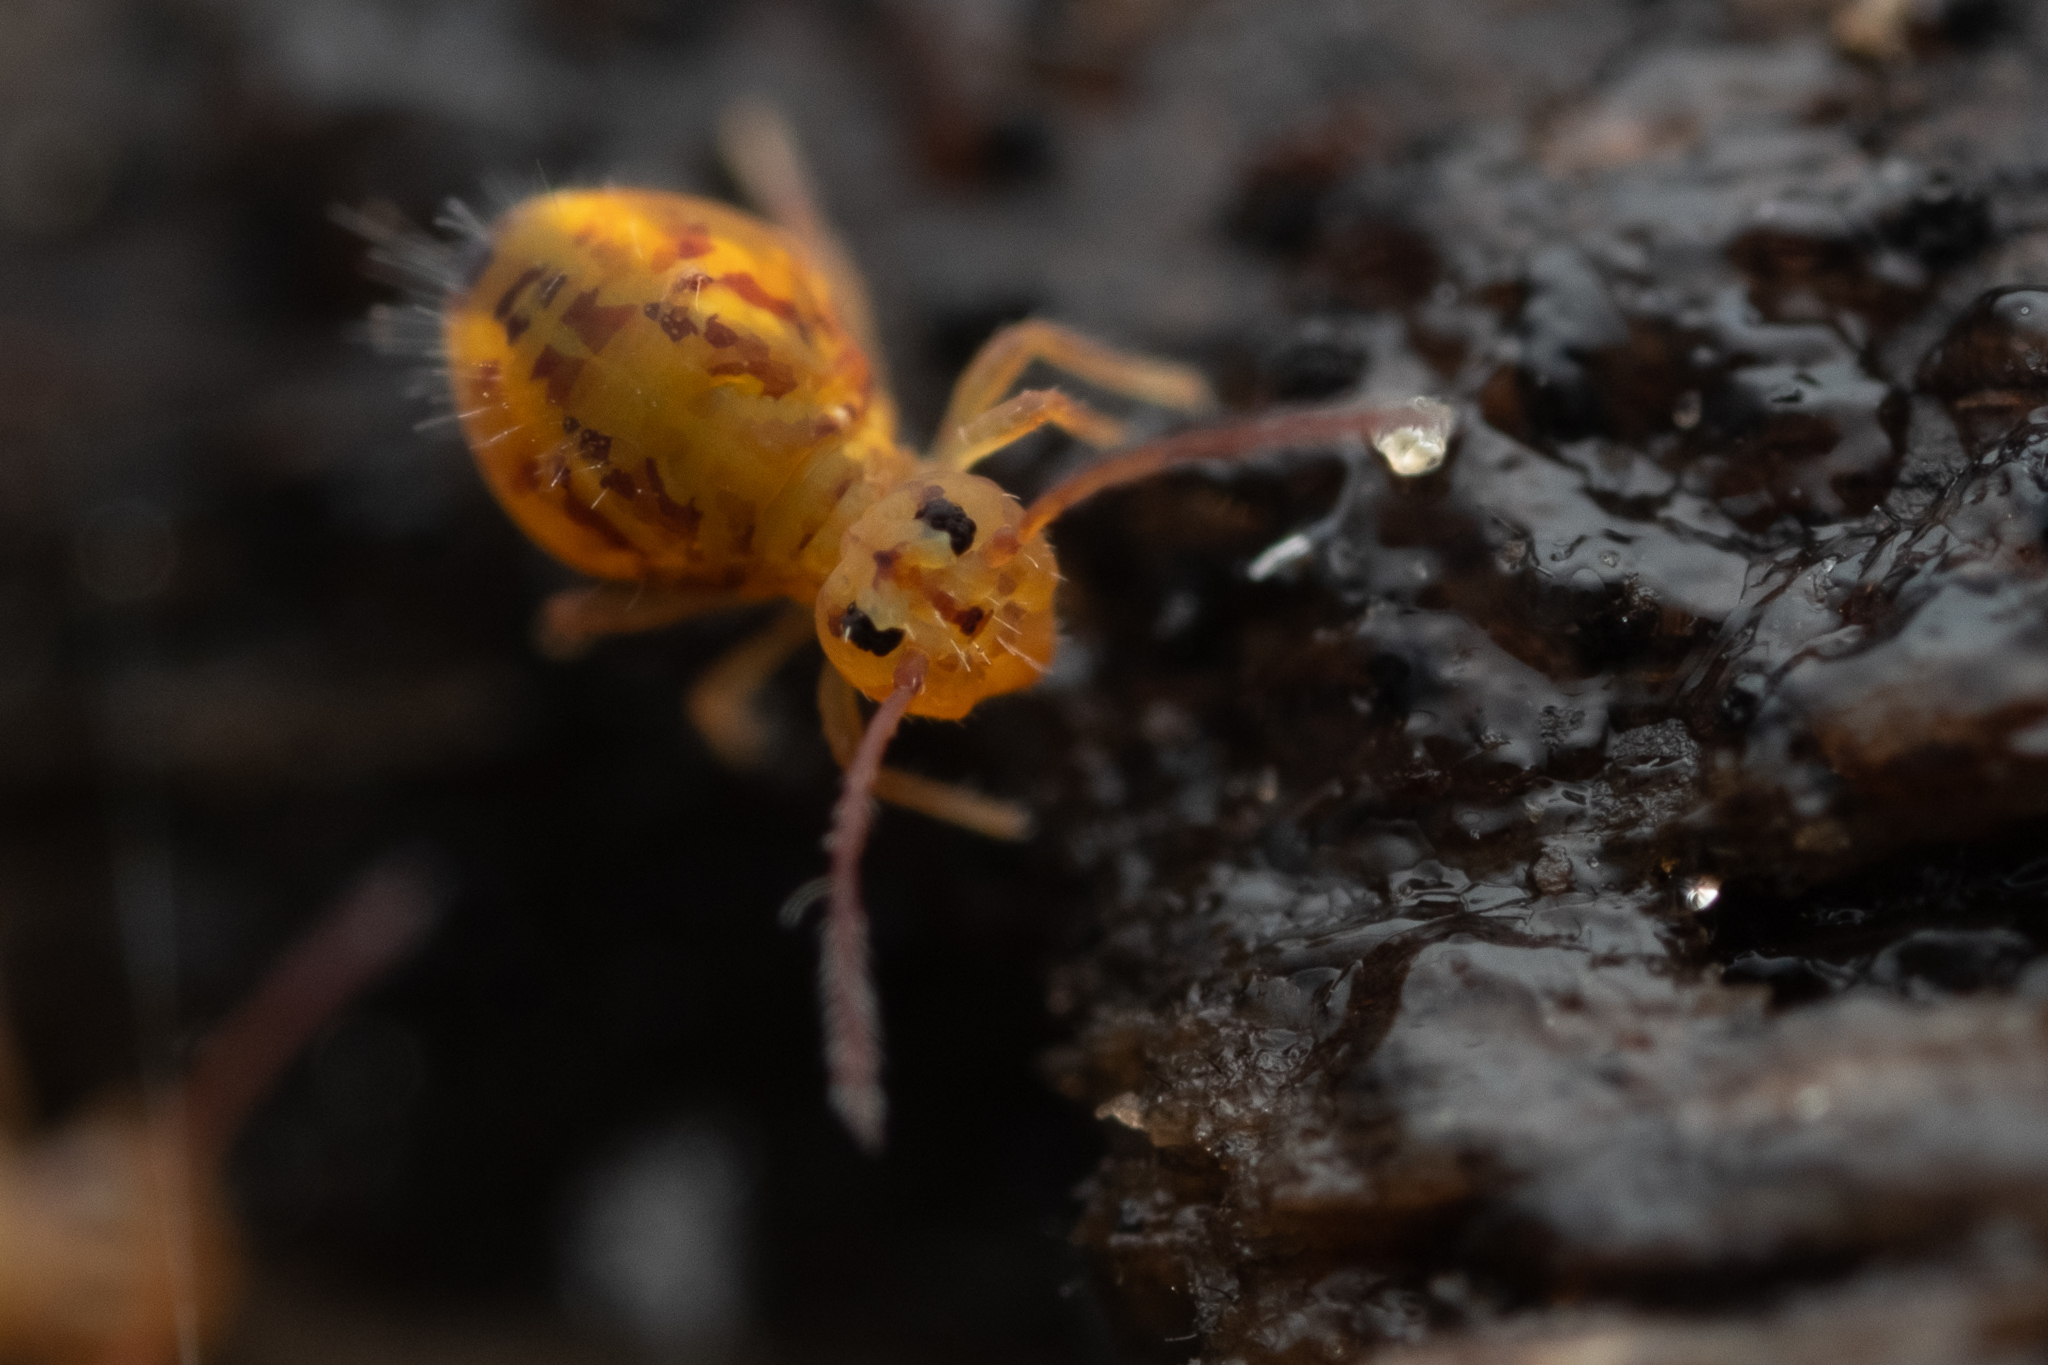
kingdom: Animalia
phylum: Arthropoda
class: Collembola
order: Symphypleona
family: Dicyrtomidae
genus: Dicyrtomina
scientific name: Dicyrtomina ornata
